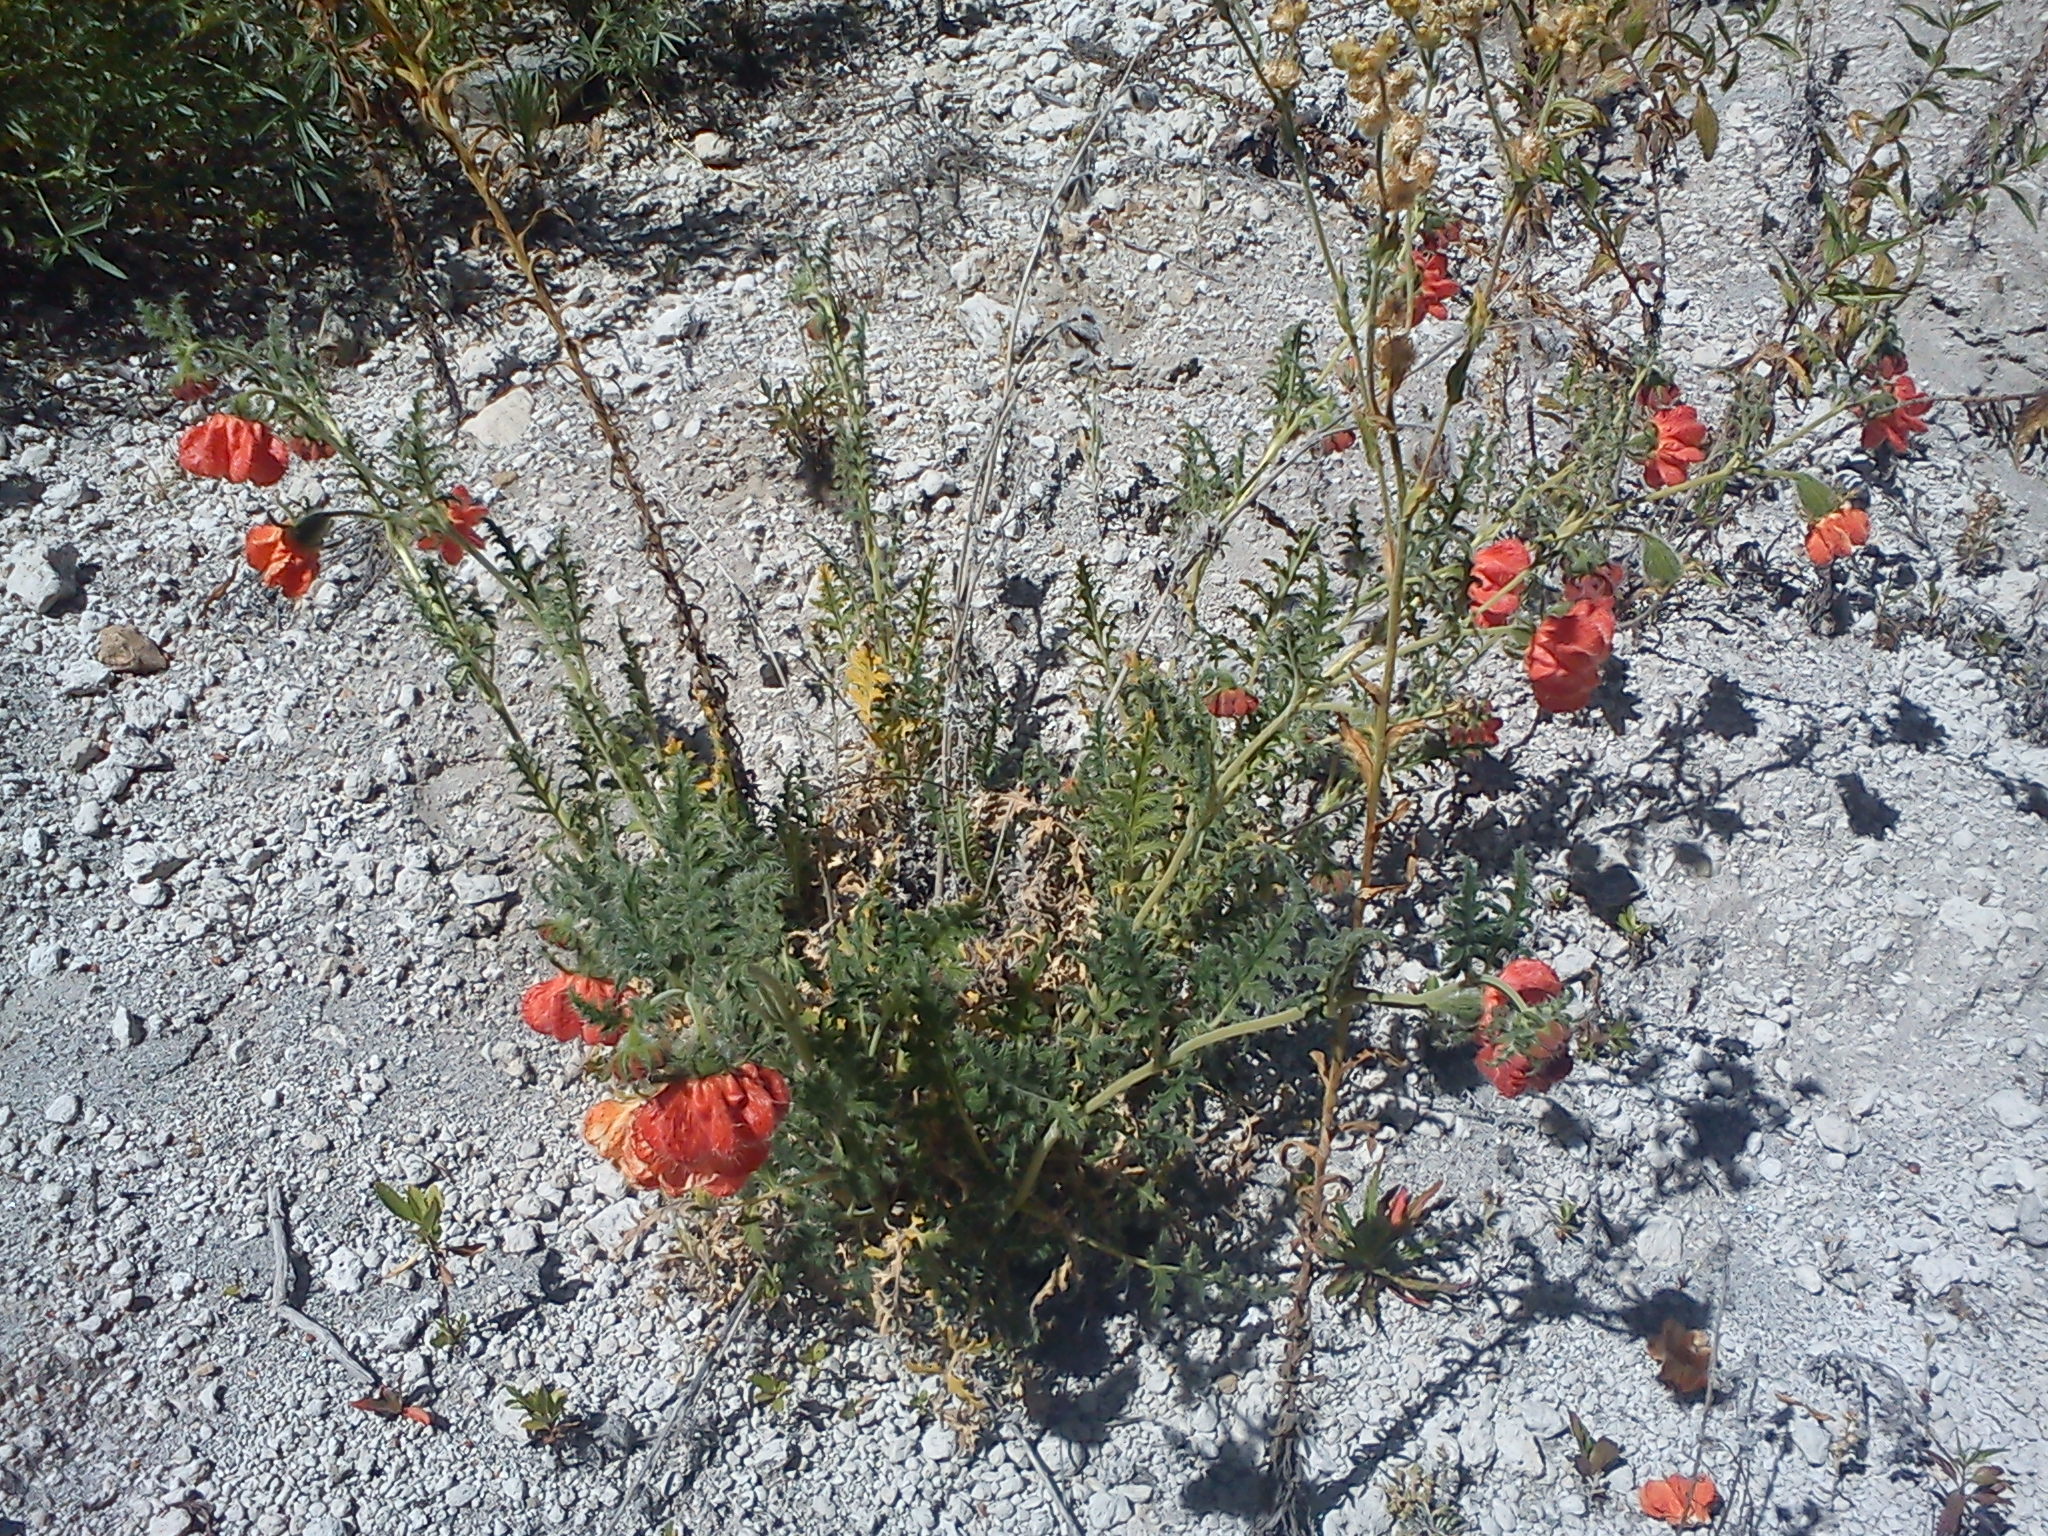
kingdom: Plantae
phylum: Tracheophyta
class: Magnoliopsida
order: Cornales
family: Loasaceae
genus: Caiophora
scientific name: Caiophora deserticola
